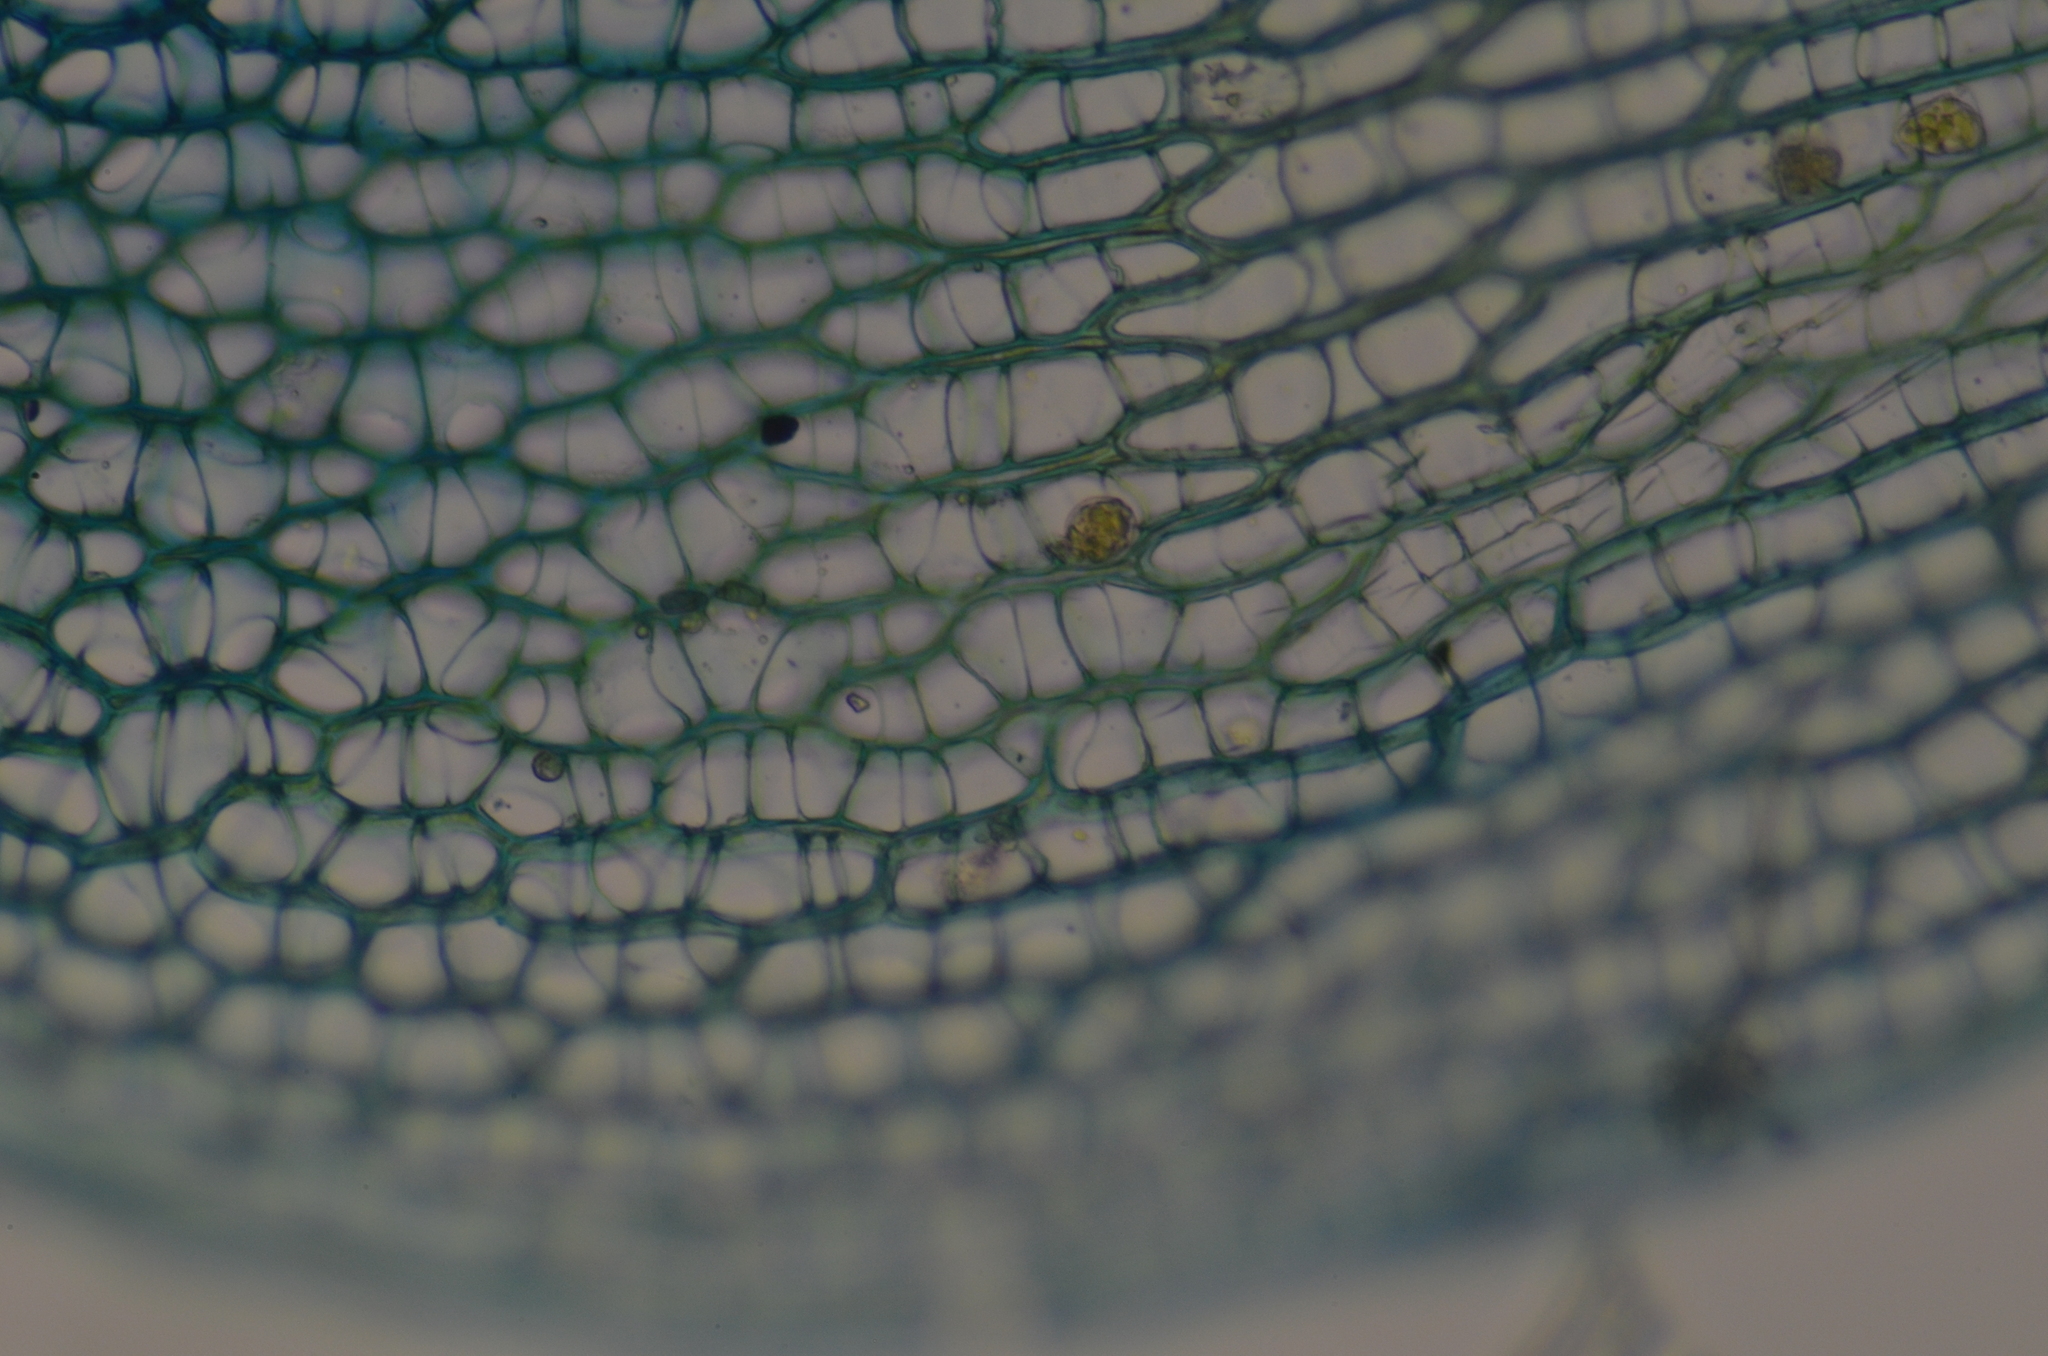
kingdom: Plantae
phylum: Bryophyta
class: Sphagnopsida
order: Sphagnales
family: Sphagnaceae
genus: Sphagnum
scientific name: Sphagnum teres
